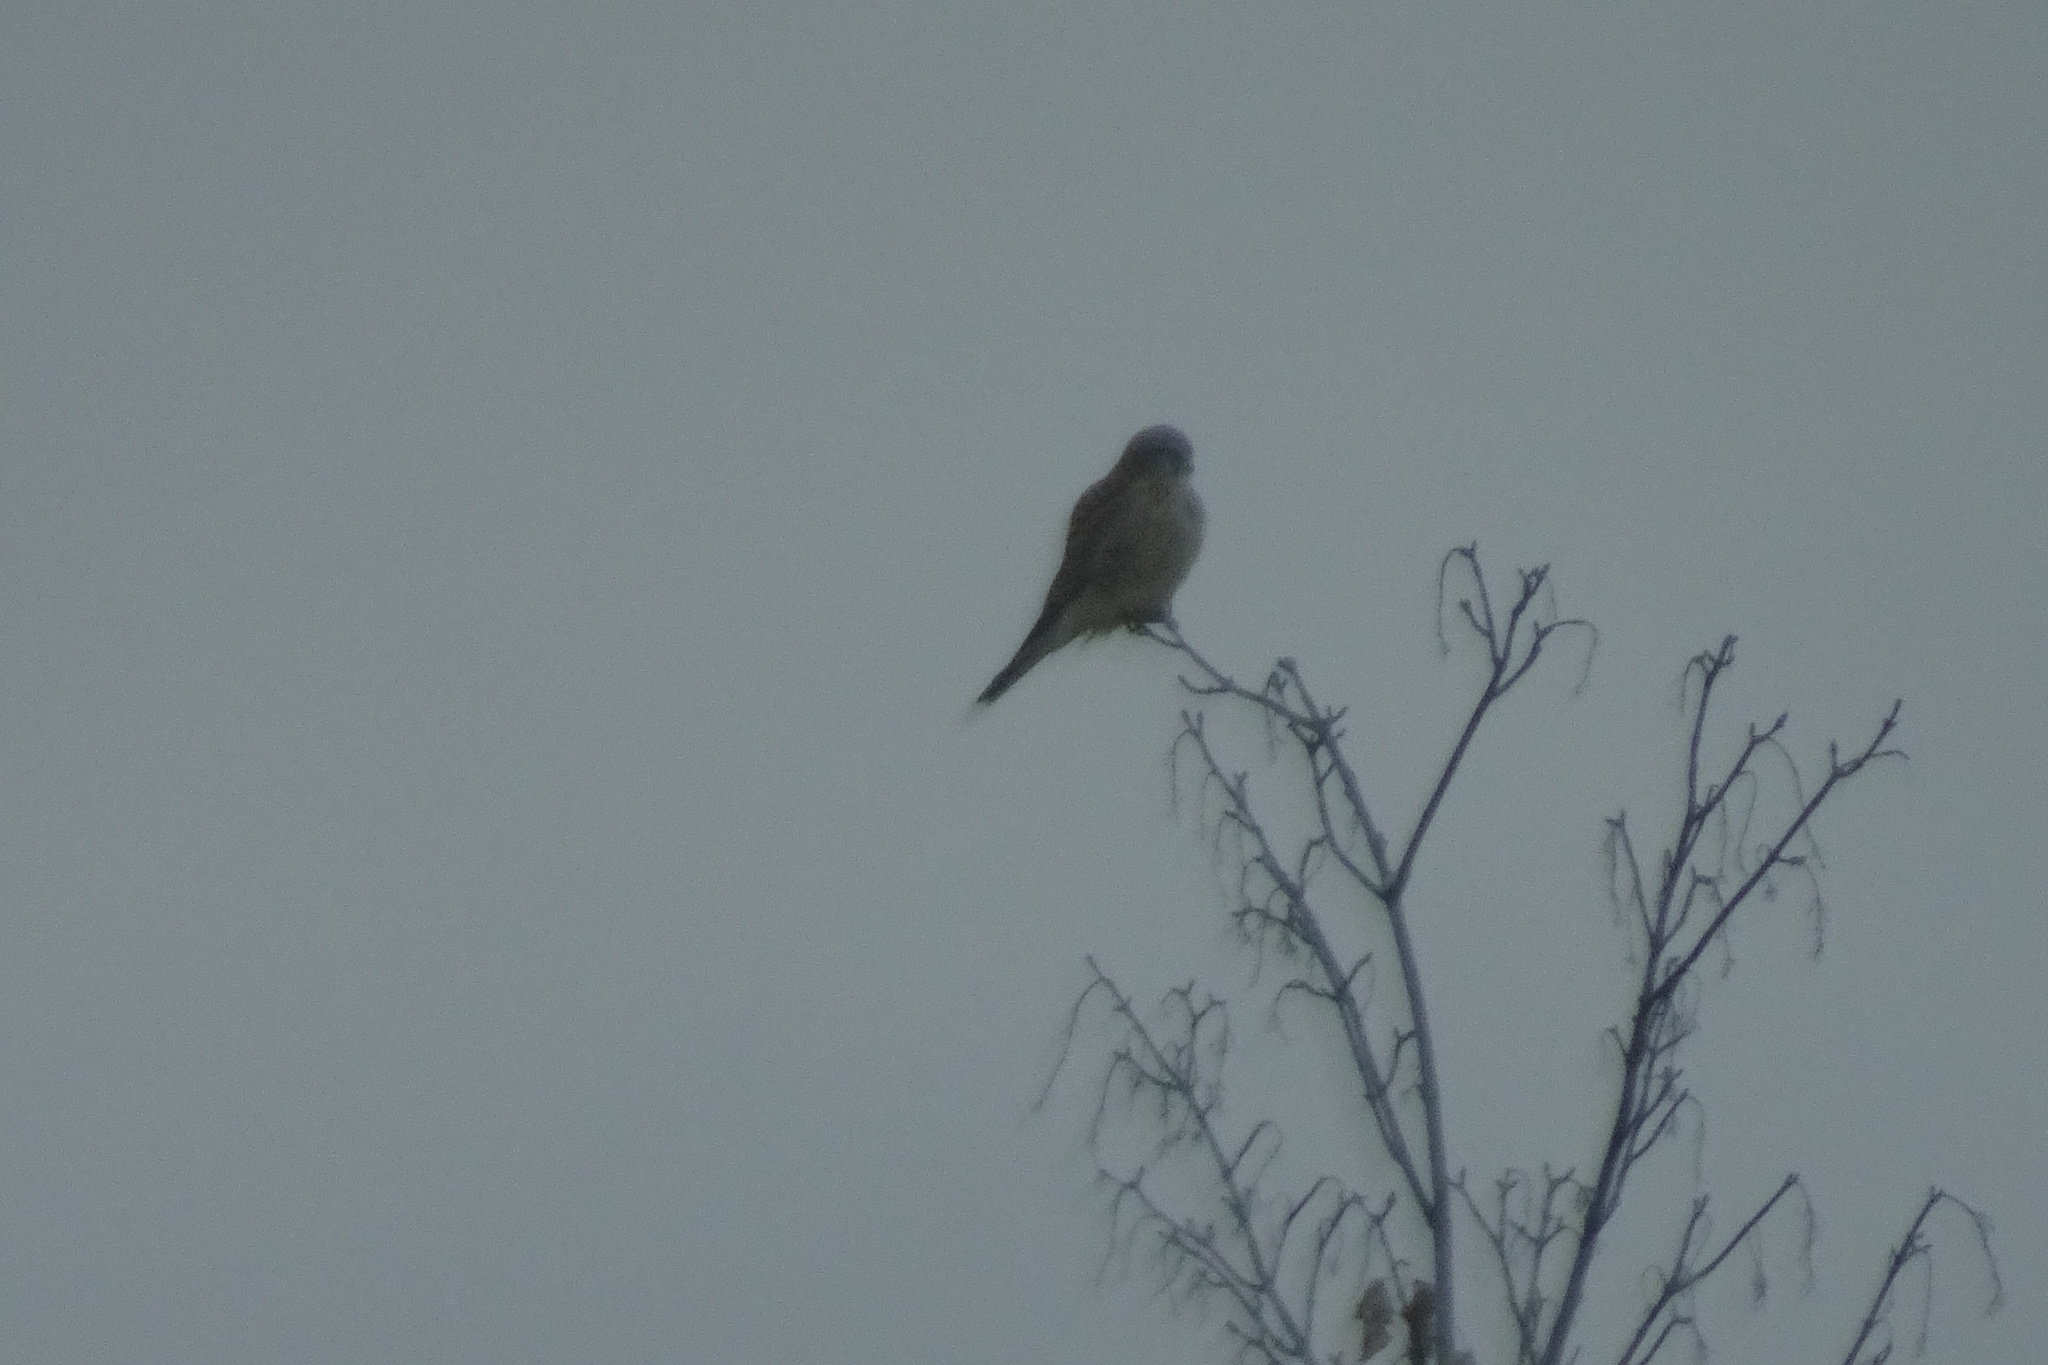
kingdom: Animalia
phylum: Chordata
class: Aves
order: Falconiformes
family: Falconidae
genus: Falco
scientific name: Falco tinnunculus
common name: Common kestrel
